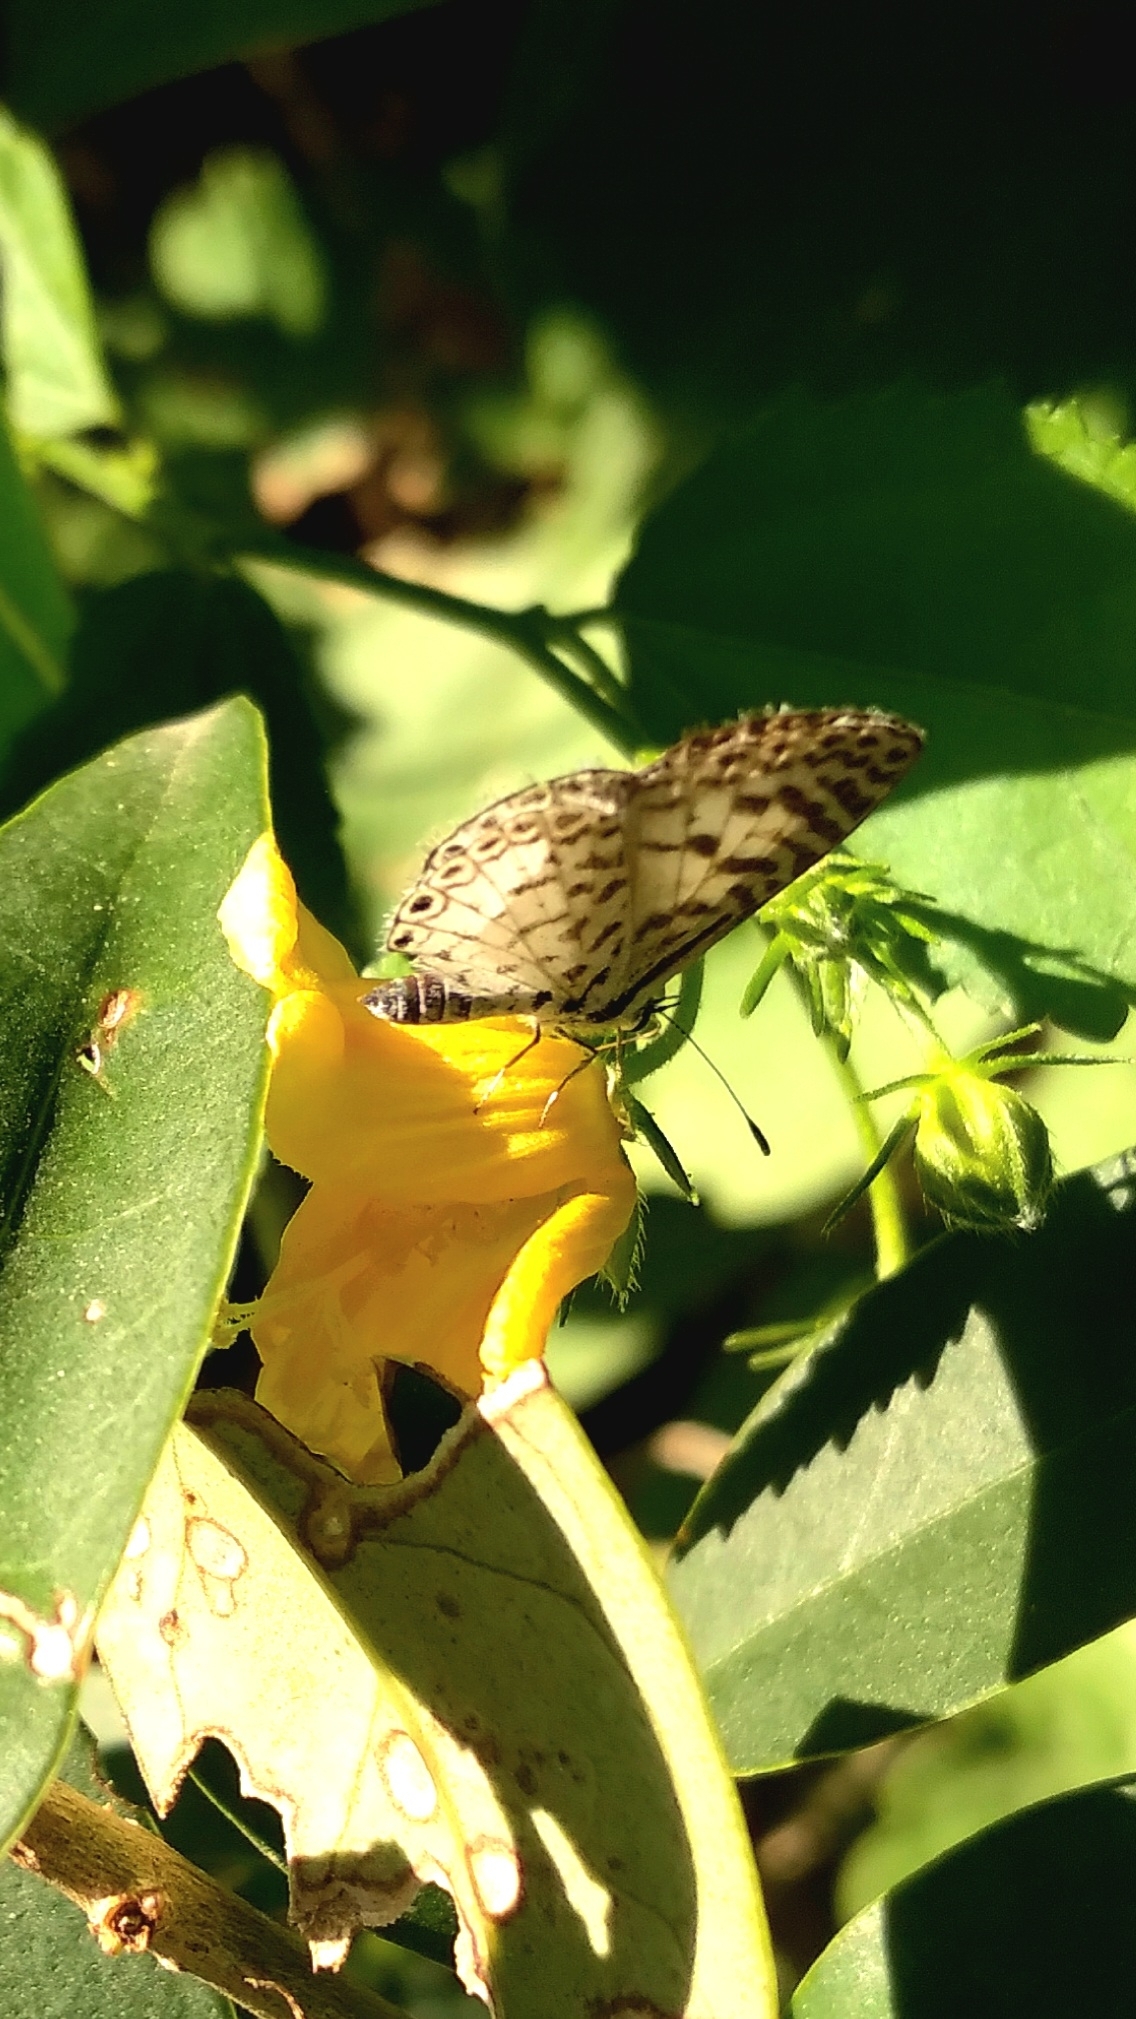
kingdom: Animalia
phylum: Arthropoda
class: Insecta
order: Lepidoptera
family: Lycaenidae
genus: Leptotes
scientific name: Leptotes cassius
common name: Cassius blue
